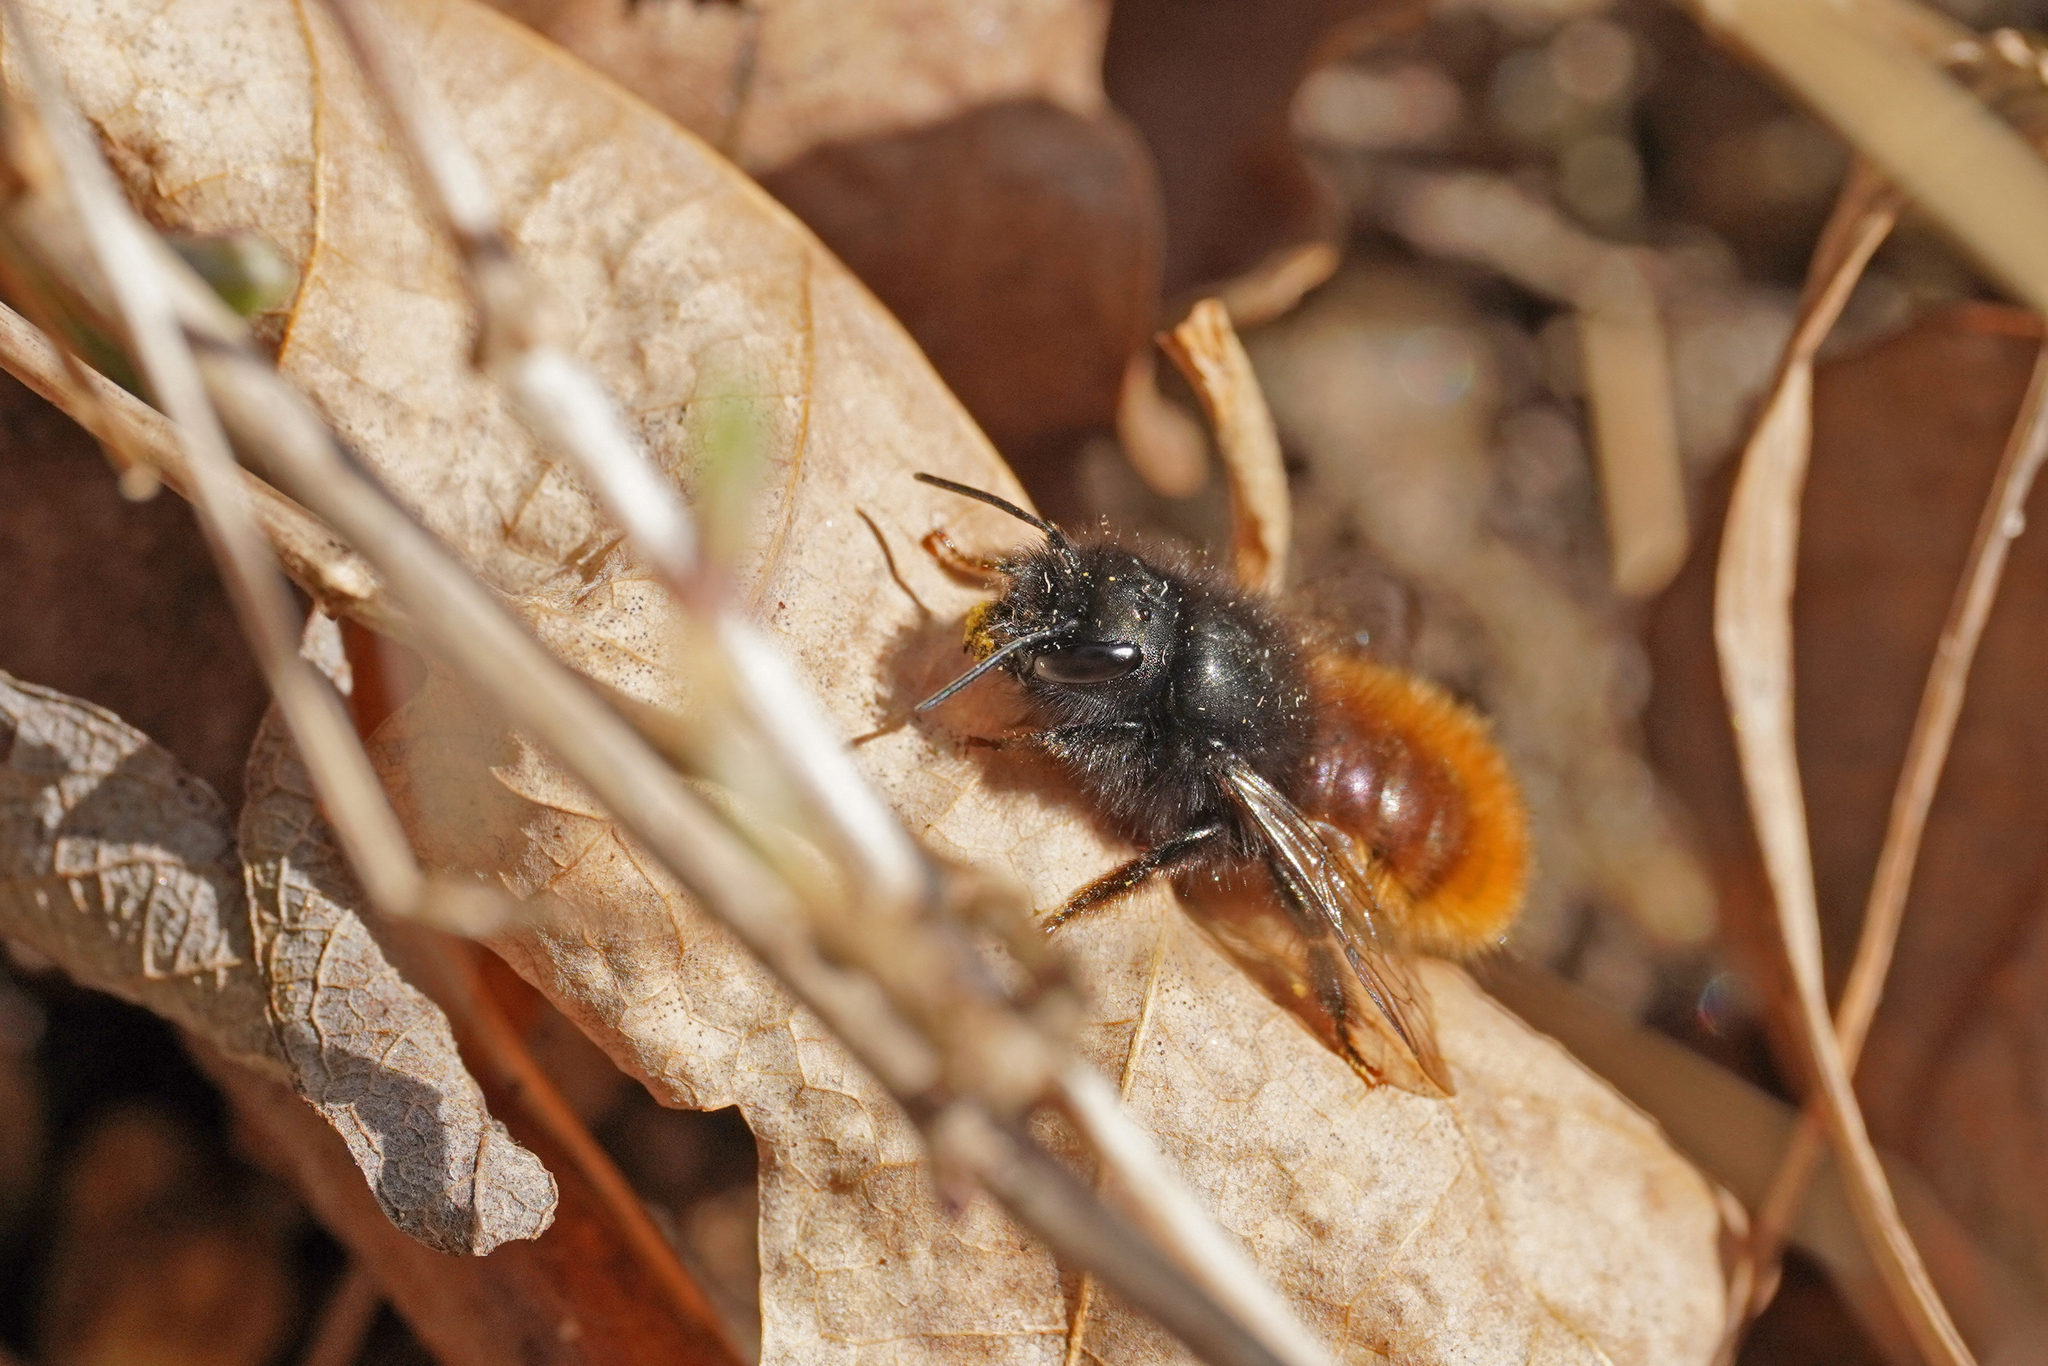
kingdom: Animalia
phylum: Arthropoda
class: Insecta
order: Hymenoptera
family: Megachilidae
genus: Osmia
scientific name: Osmia cornuta
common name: Mason bee
